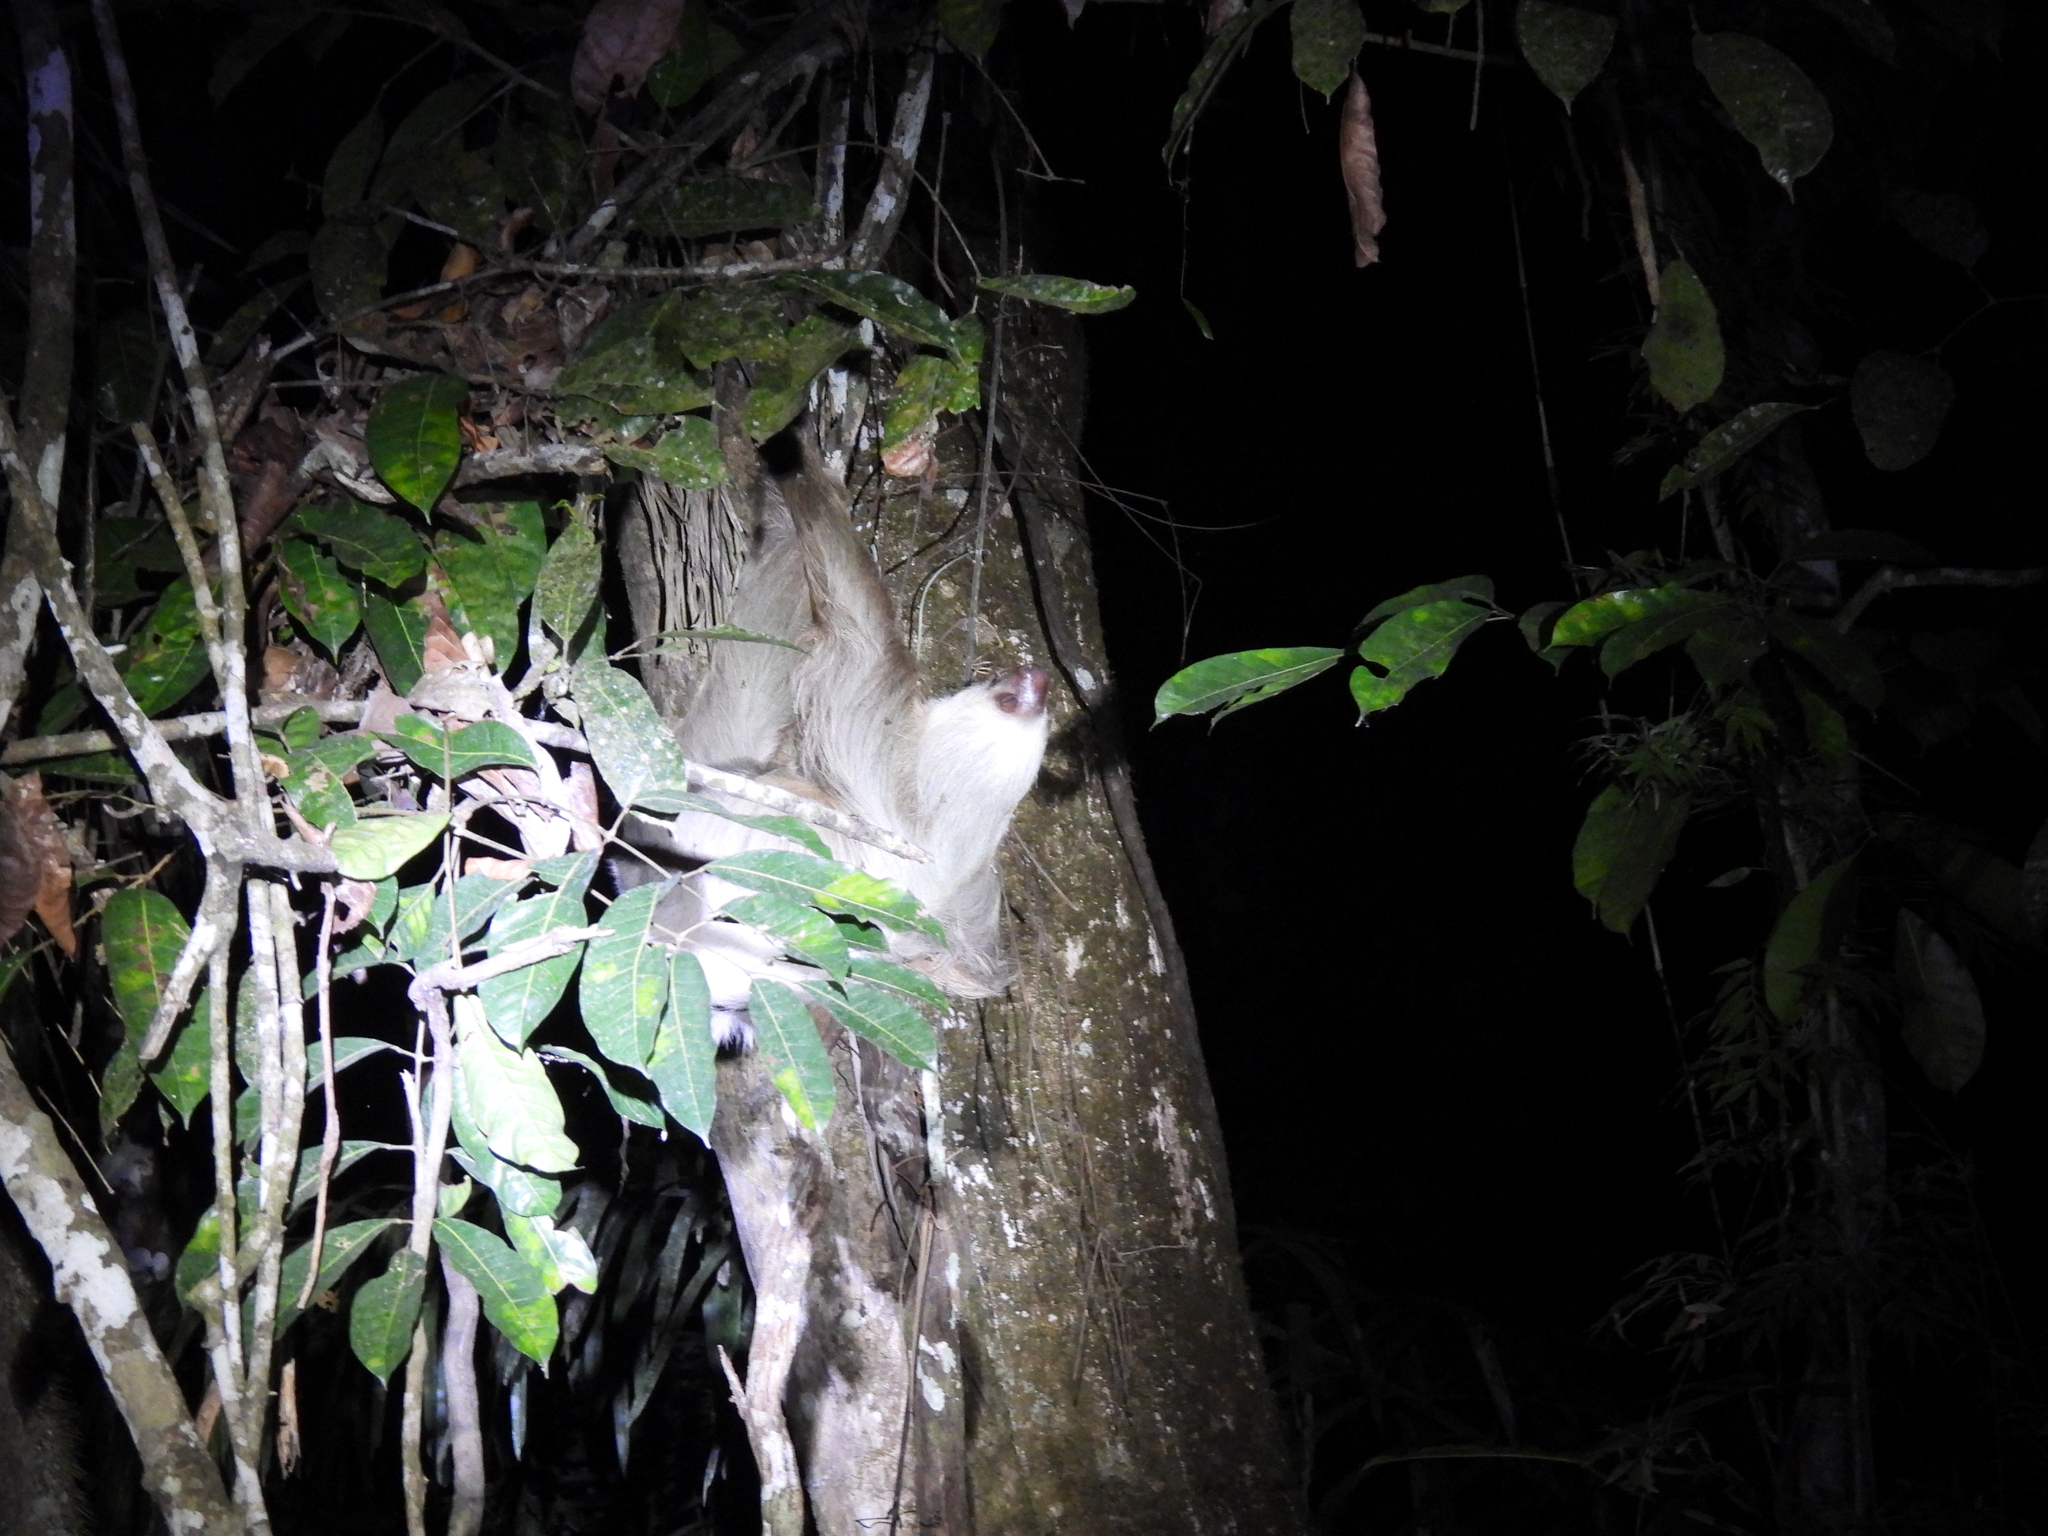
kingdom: Animalia
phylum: Chordata
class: Mammalia
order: Pilosa
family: Megalonychidae
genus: Choloepus
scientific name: Choloepus hoffmanni
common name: Hoffmann's two-toed sloth
